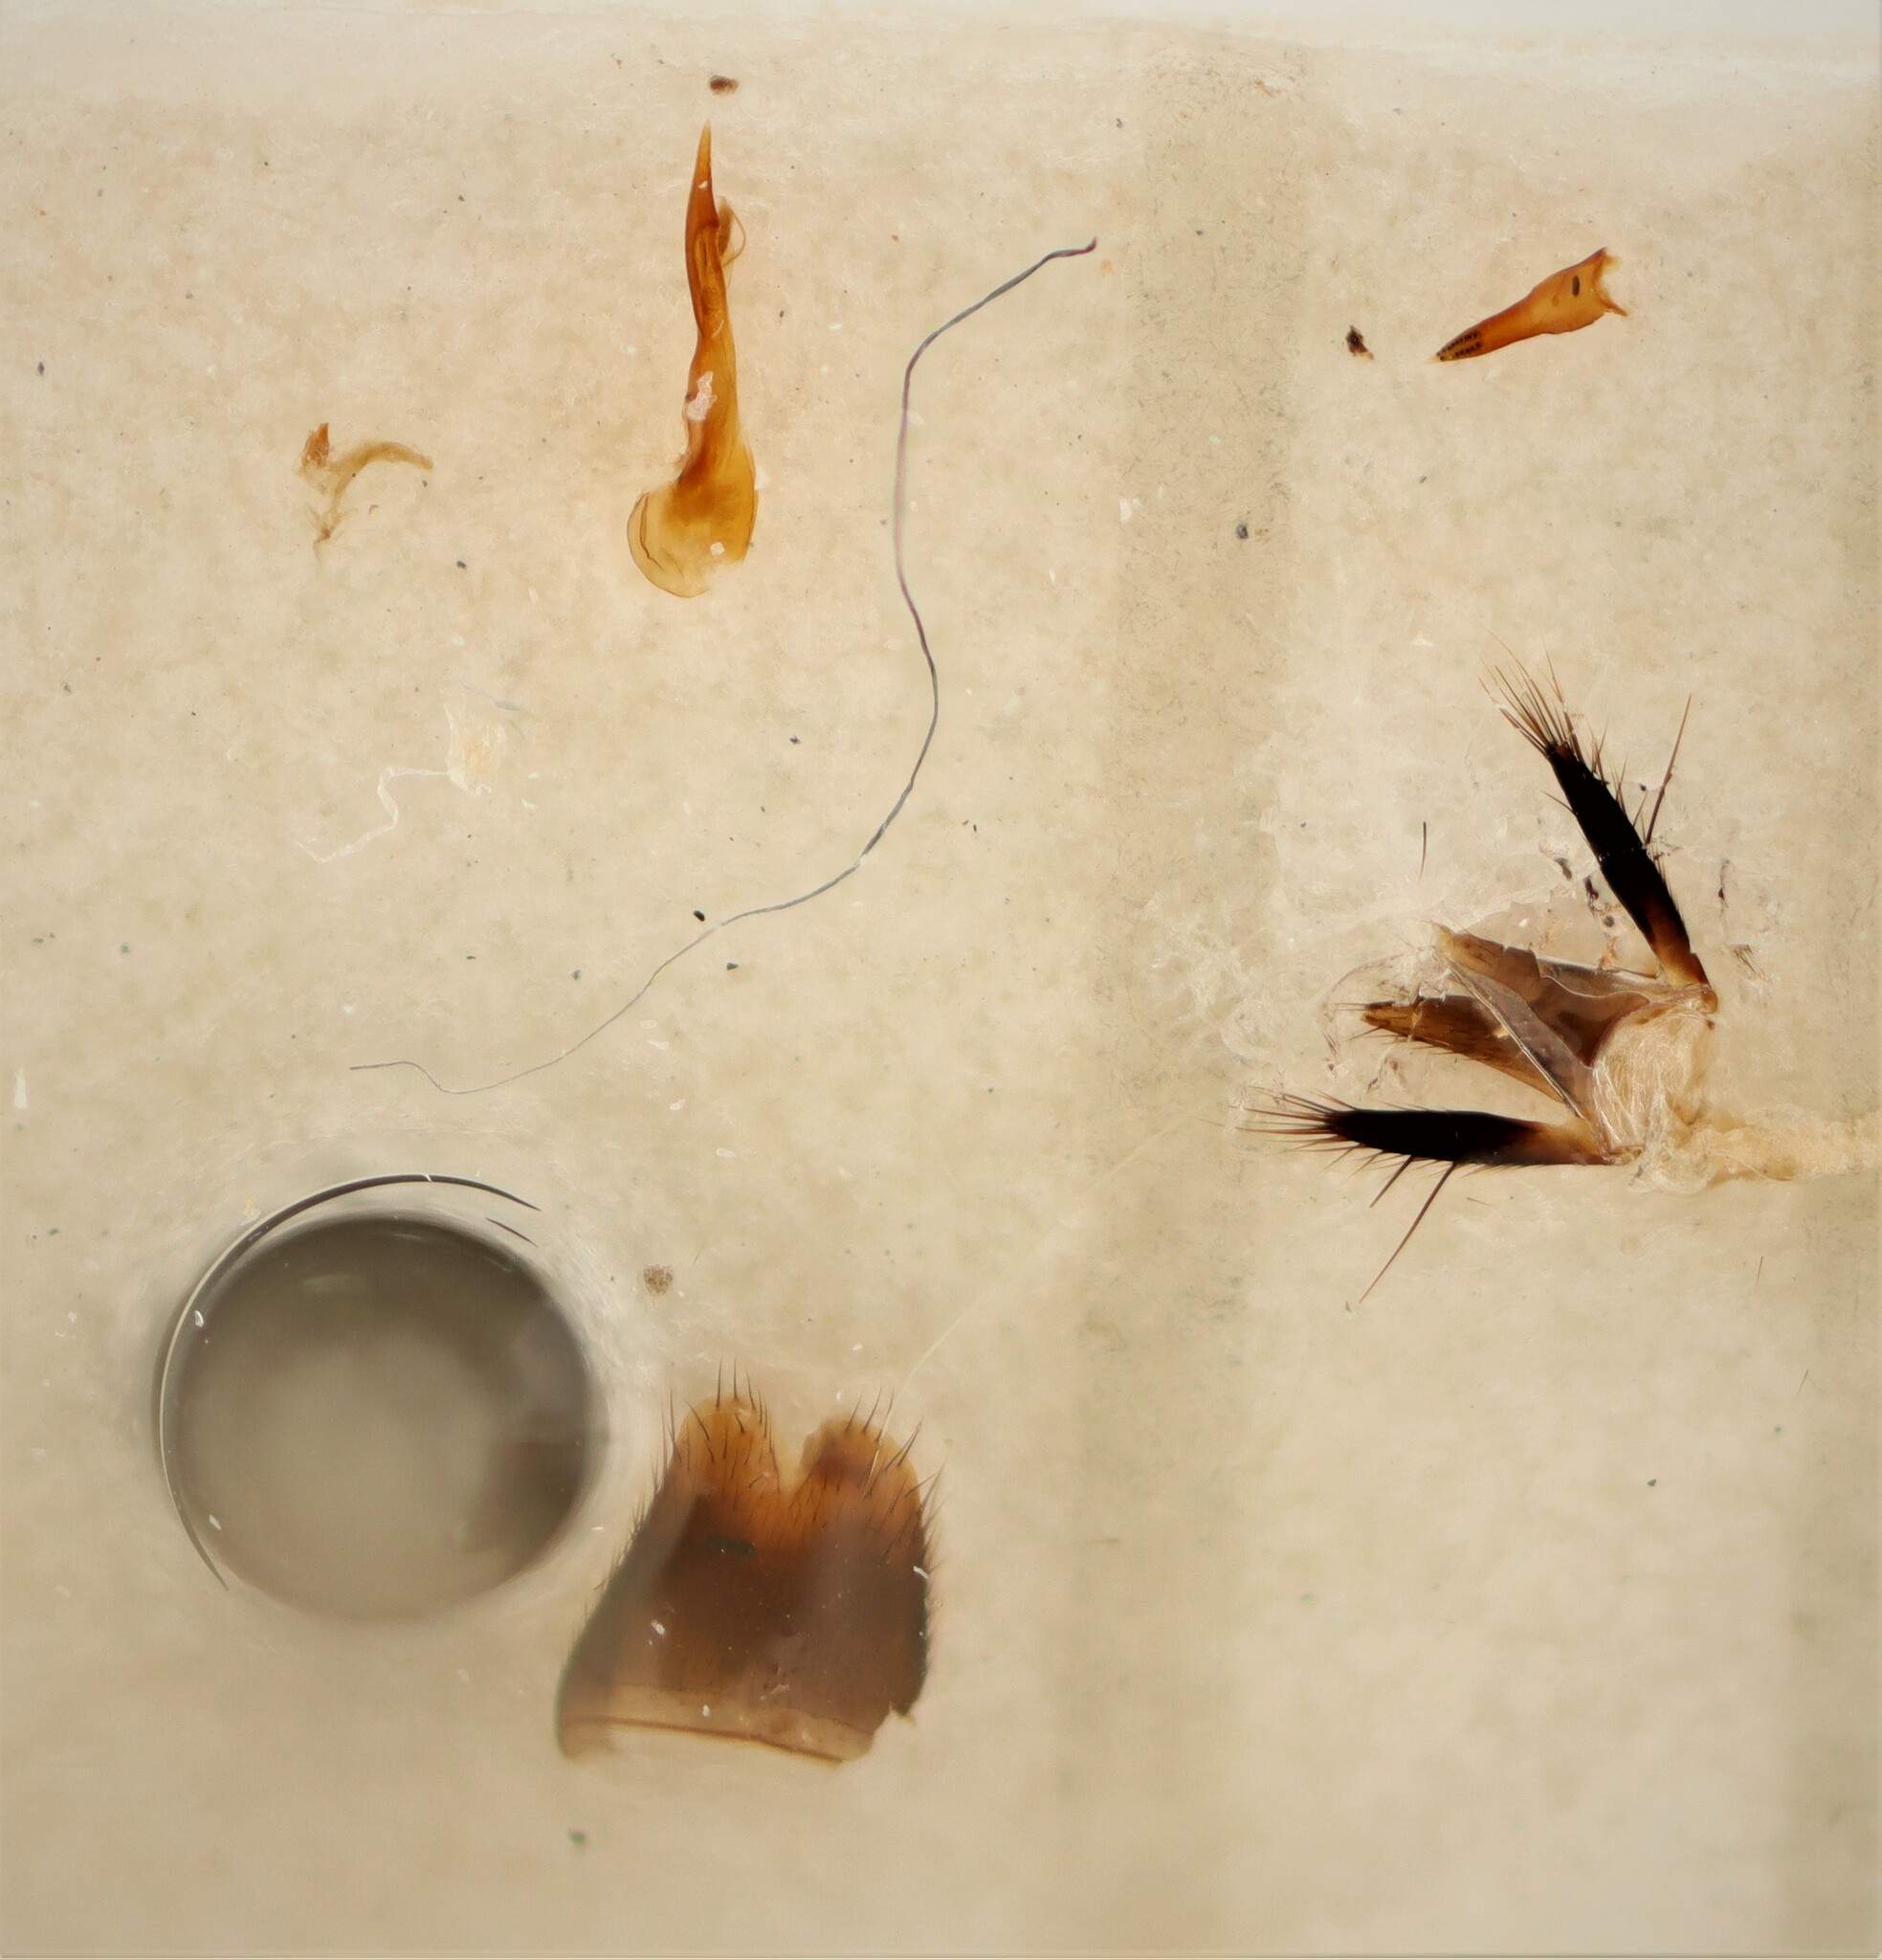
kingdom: Animalia
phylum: Arthropoda
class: Insecta
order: Coleoptera
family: Staphylinidae
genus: Philonthus
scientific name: Philonthus debilis
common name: Staph beetle
